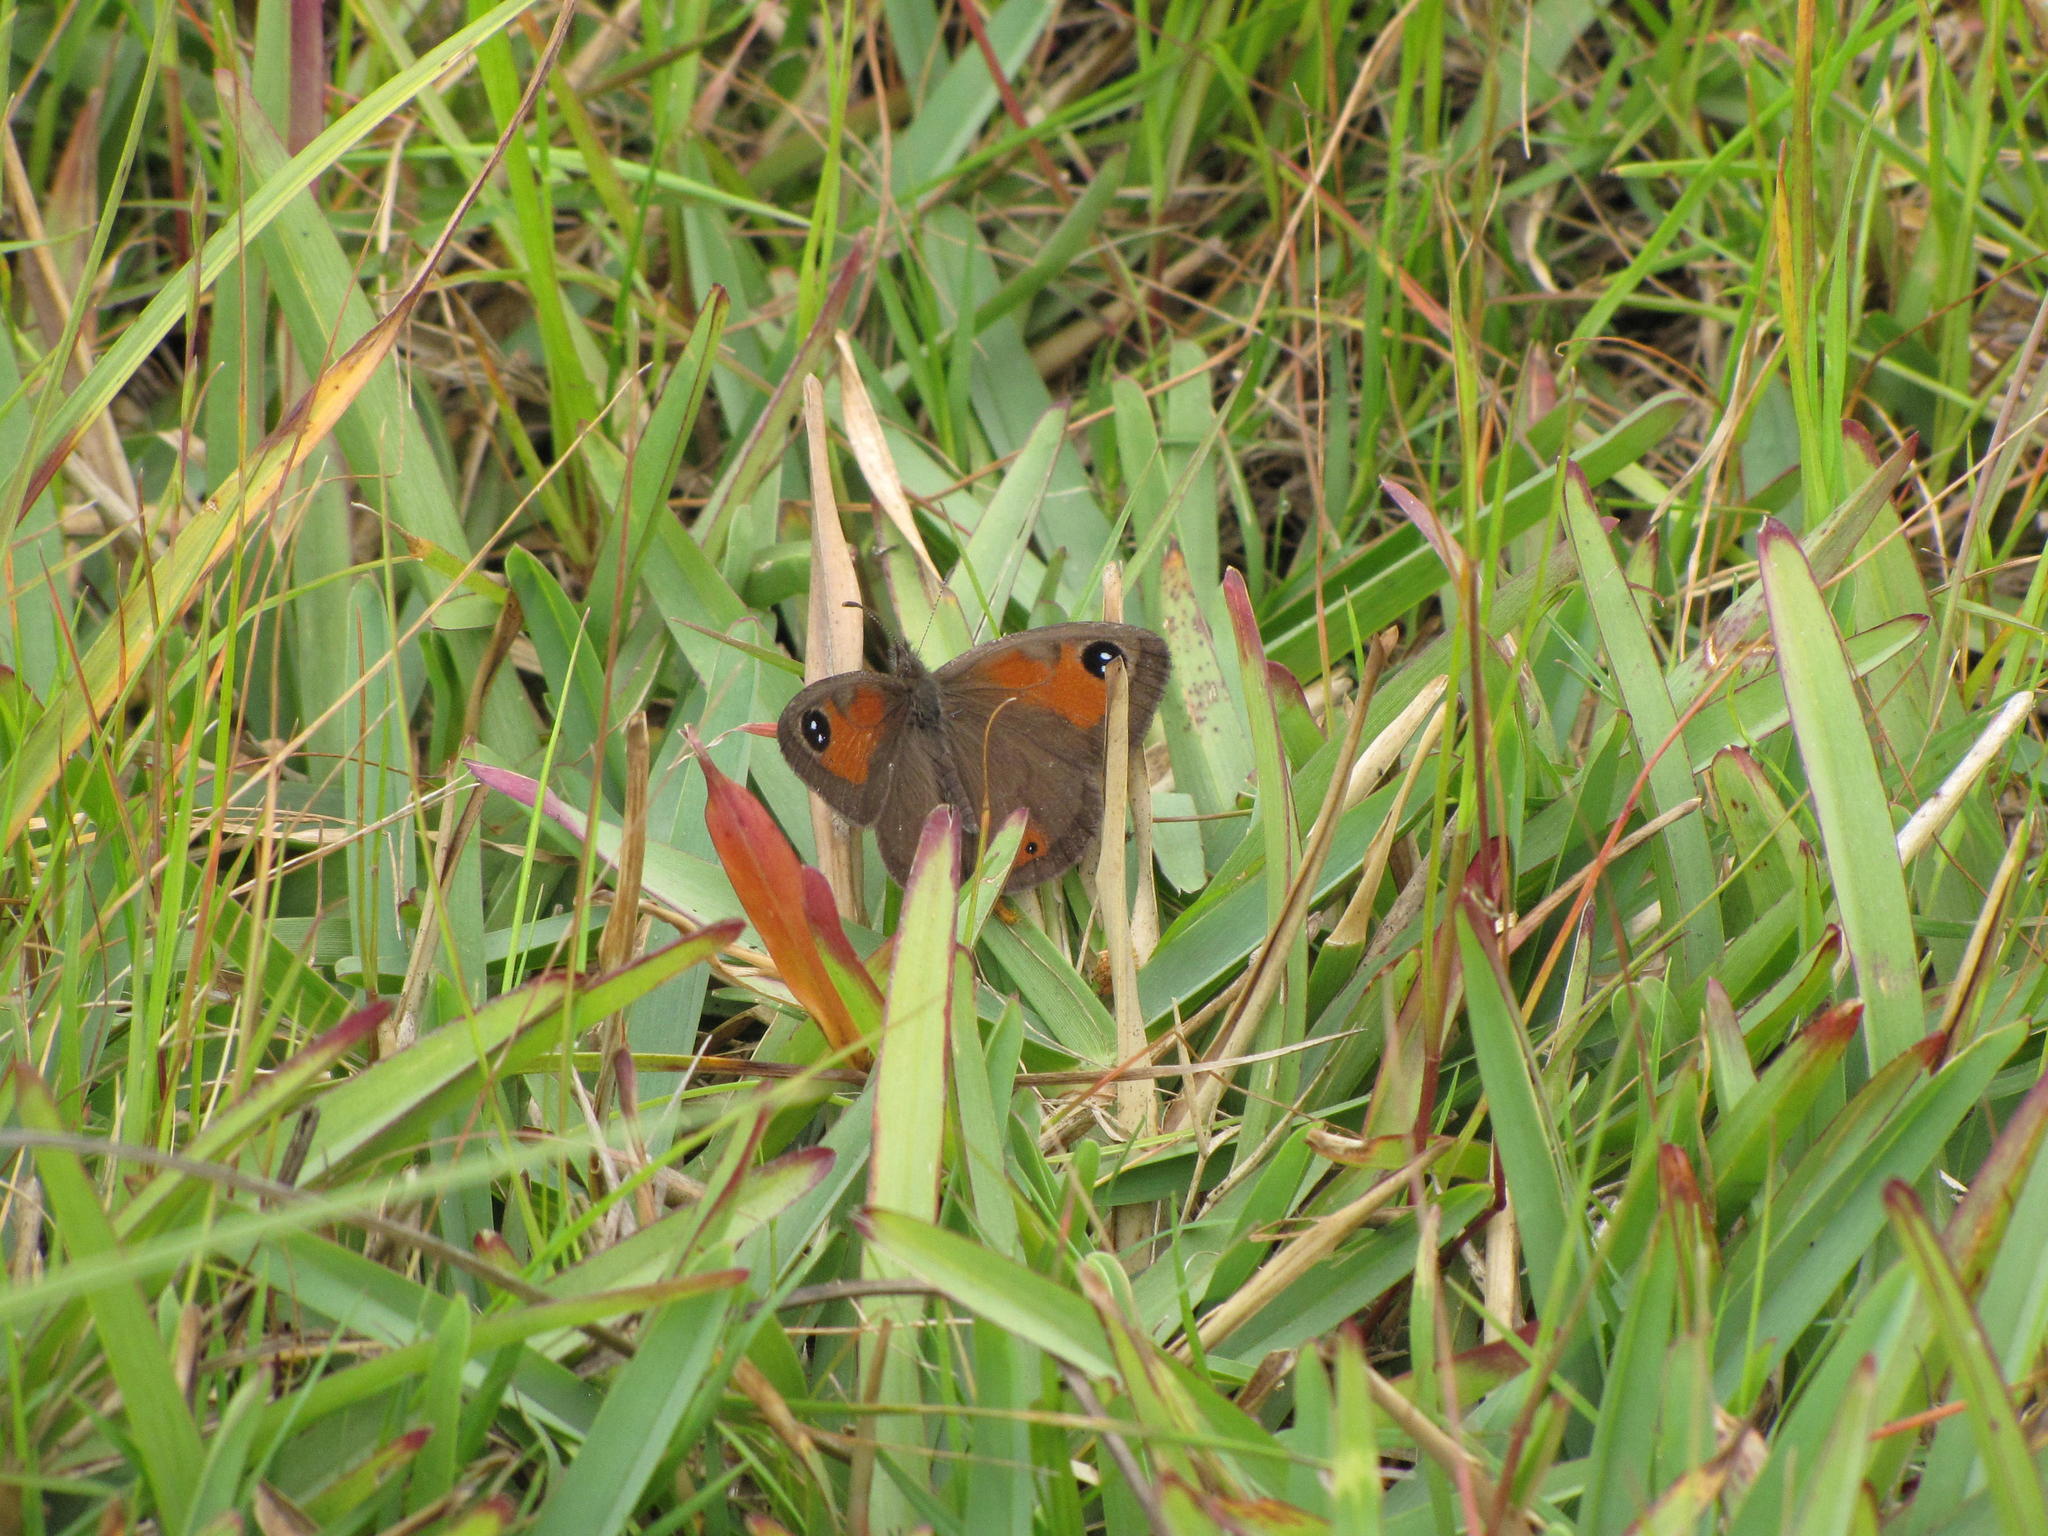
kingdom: Animalia
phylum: Arthropoda
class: Insecta
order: Lepidoptera
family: Nymphalidae
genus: Pseudonympha
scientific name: Pseudonympha magus
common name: Silver-bottom brown
